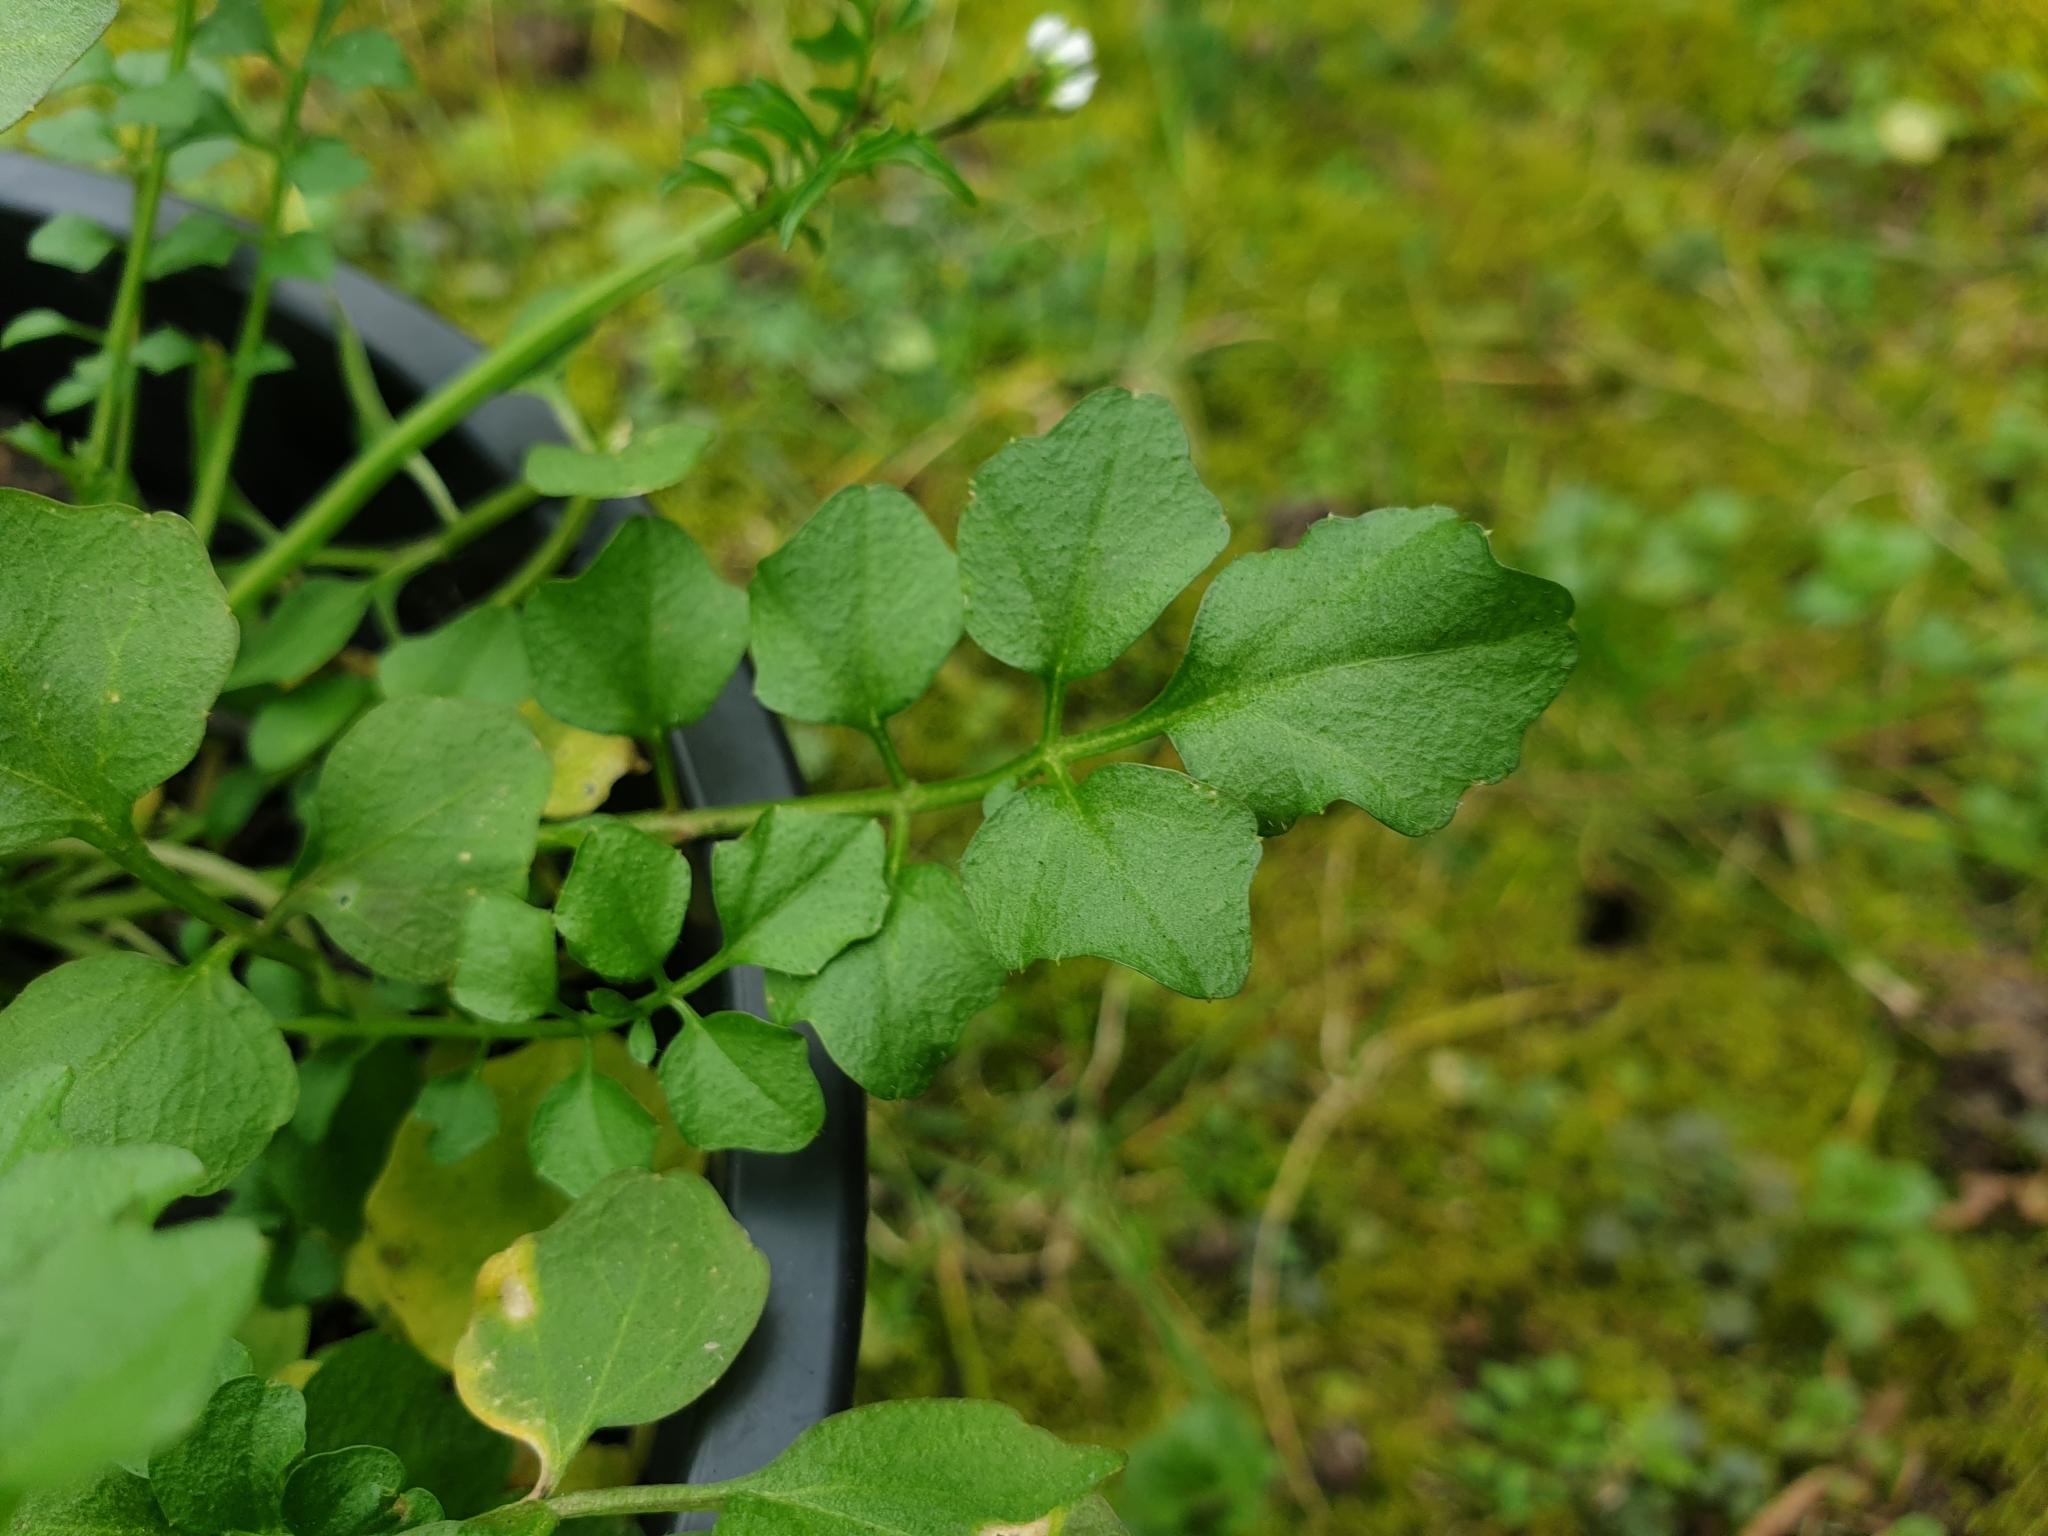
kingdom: Plantae
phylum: Tracheophyta
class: Magnoliopsida
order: Brassicales
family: Brassicaceae
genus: Cardamine
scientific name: Cardamine hirsuta
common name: Hairy bittercress
